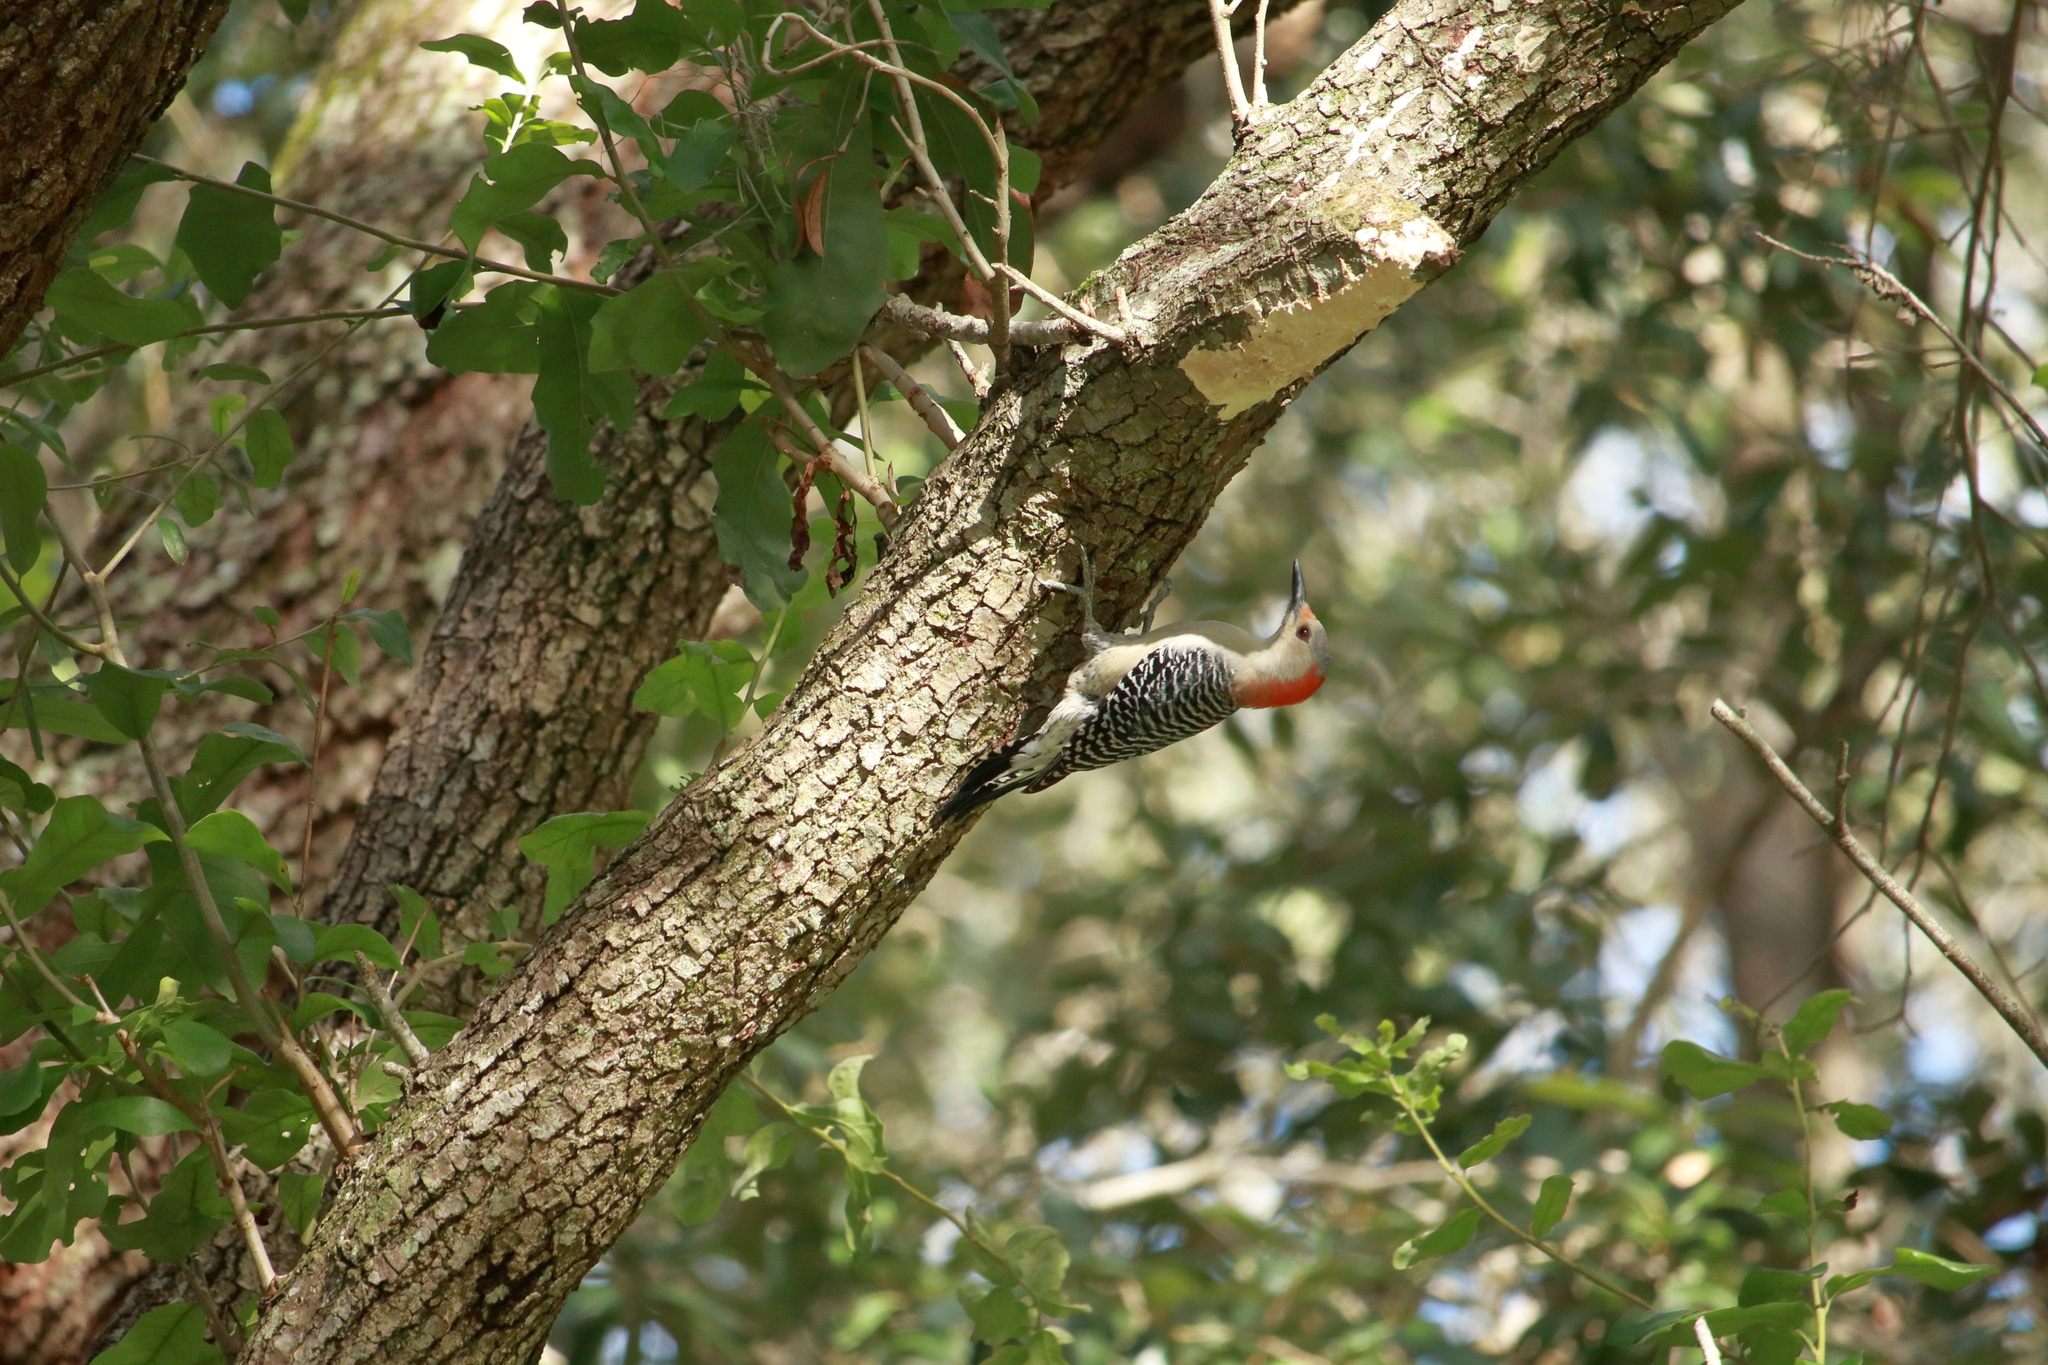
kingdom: Animalia
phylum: Chordata
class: Aves
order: Piciformes
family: Picidae
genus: Melanerpes
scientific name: Melanerpes carolinus
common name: Red-bellied woodpecker
